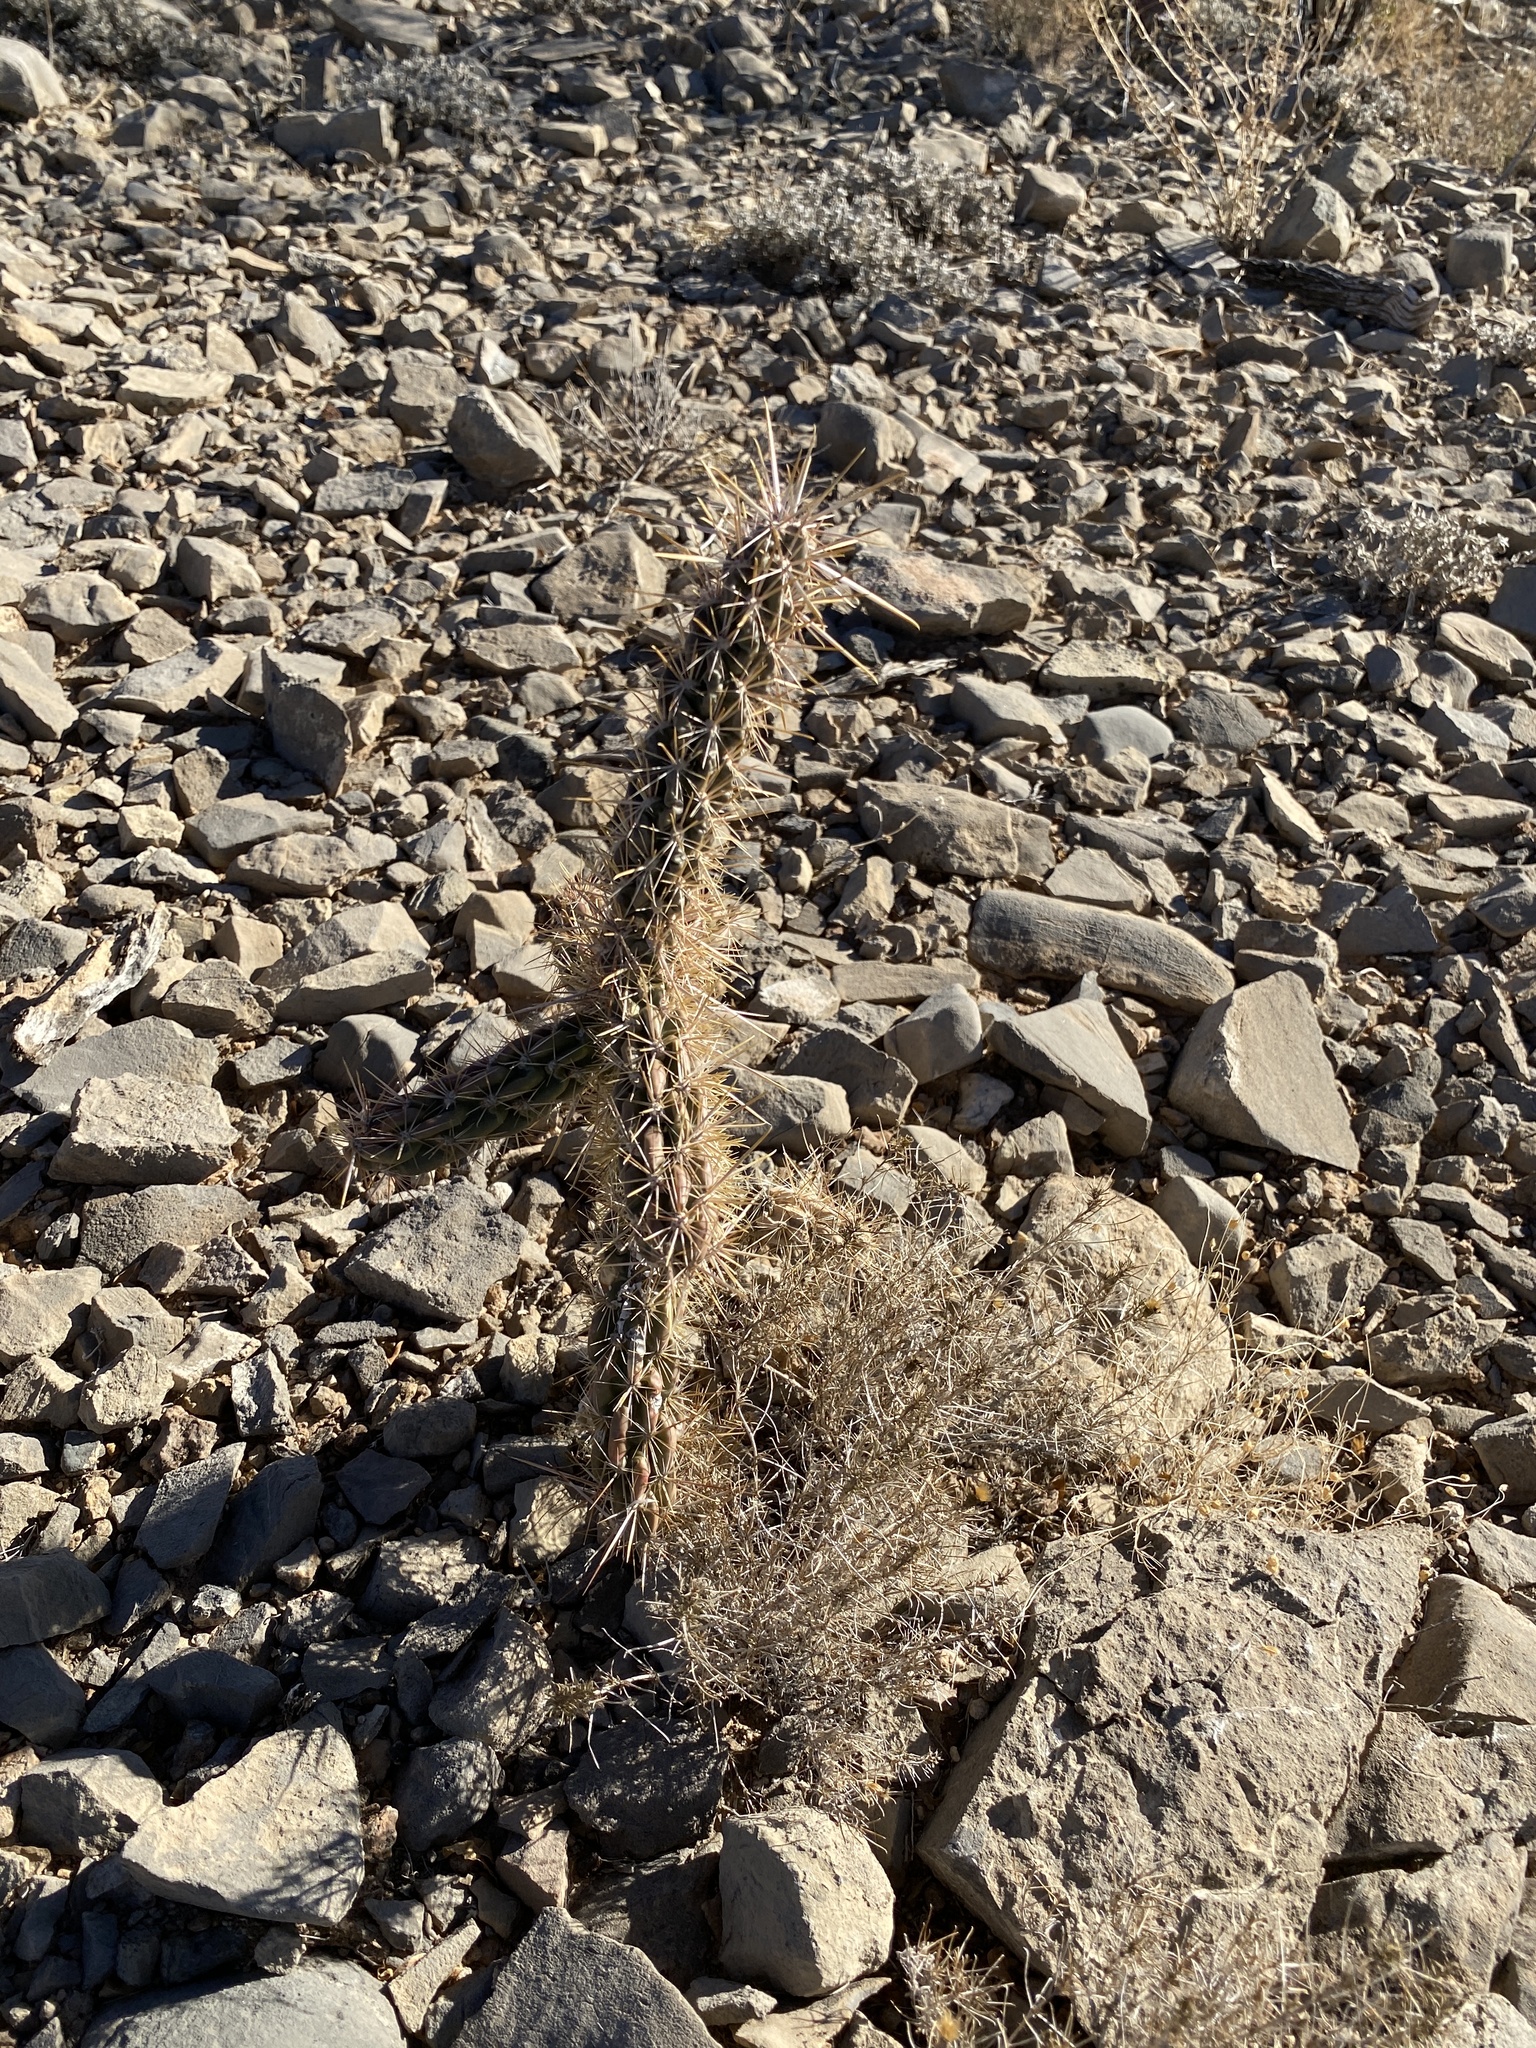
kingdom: Plantae
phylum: Tracheophyta
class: Magnoliopsida
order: Caryophyllales
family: Cactaceae
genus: Cylindropuntia
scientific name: Cylindropuntia imbricata
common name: Candelabrum cactus
